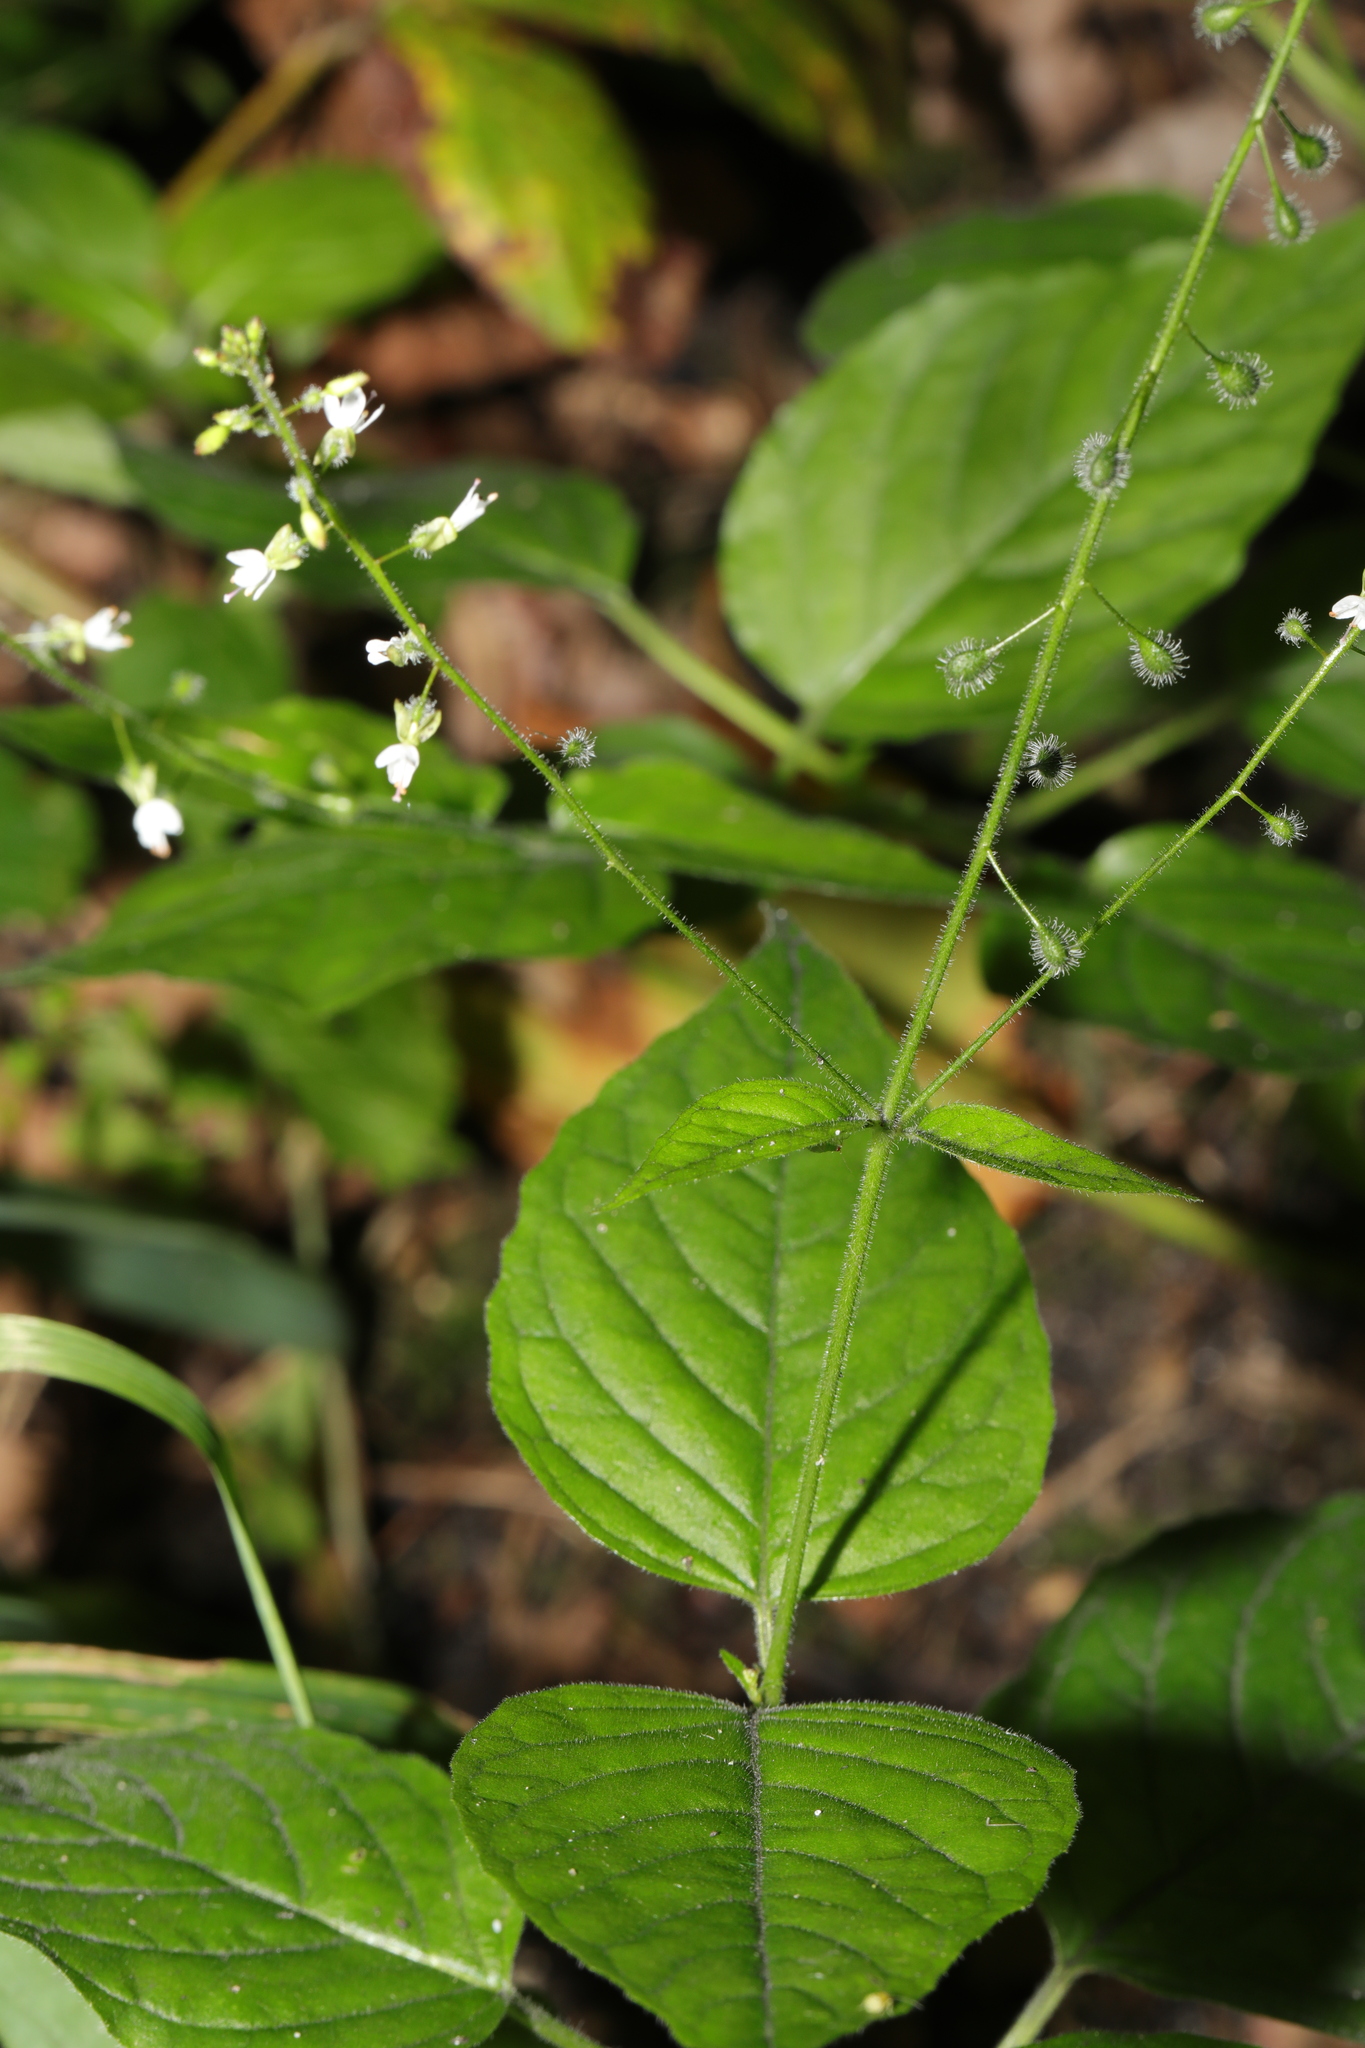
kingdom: Plantae
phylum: Tracheophyta
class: Magnoliopsida
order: Myrtales
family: Onagraceae
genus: Circaea
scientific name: Circaea lutetiana
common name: Enchanter's-nightshade
